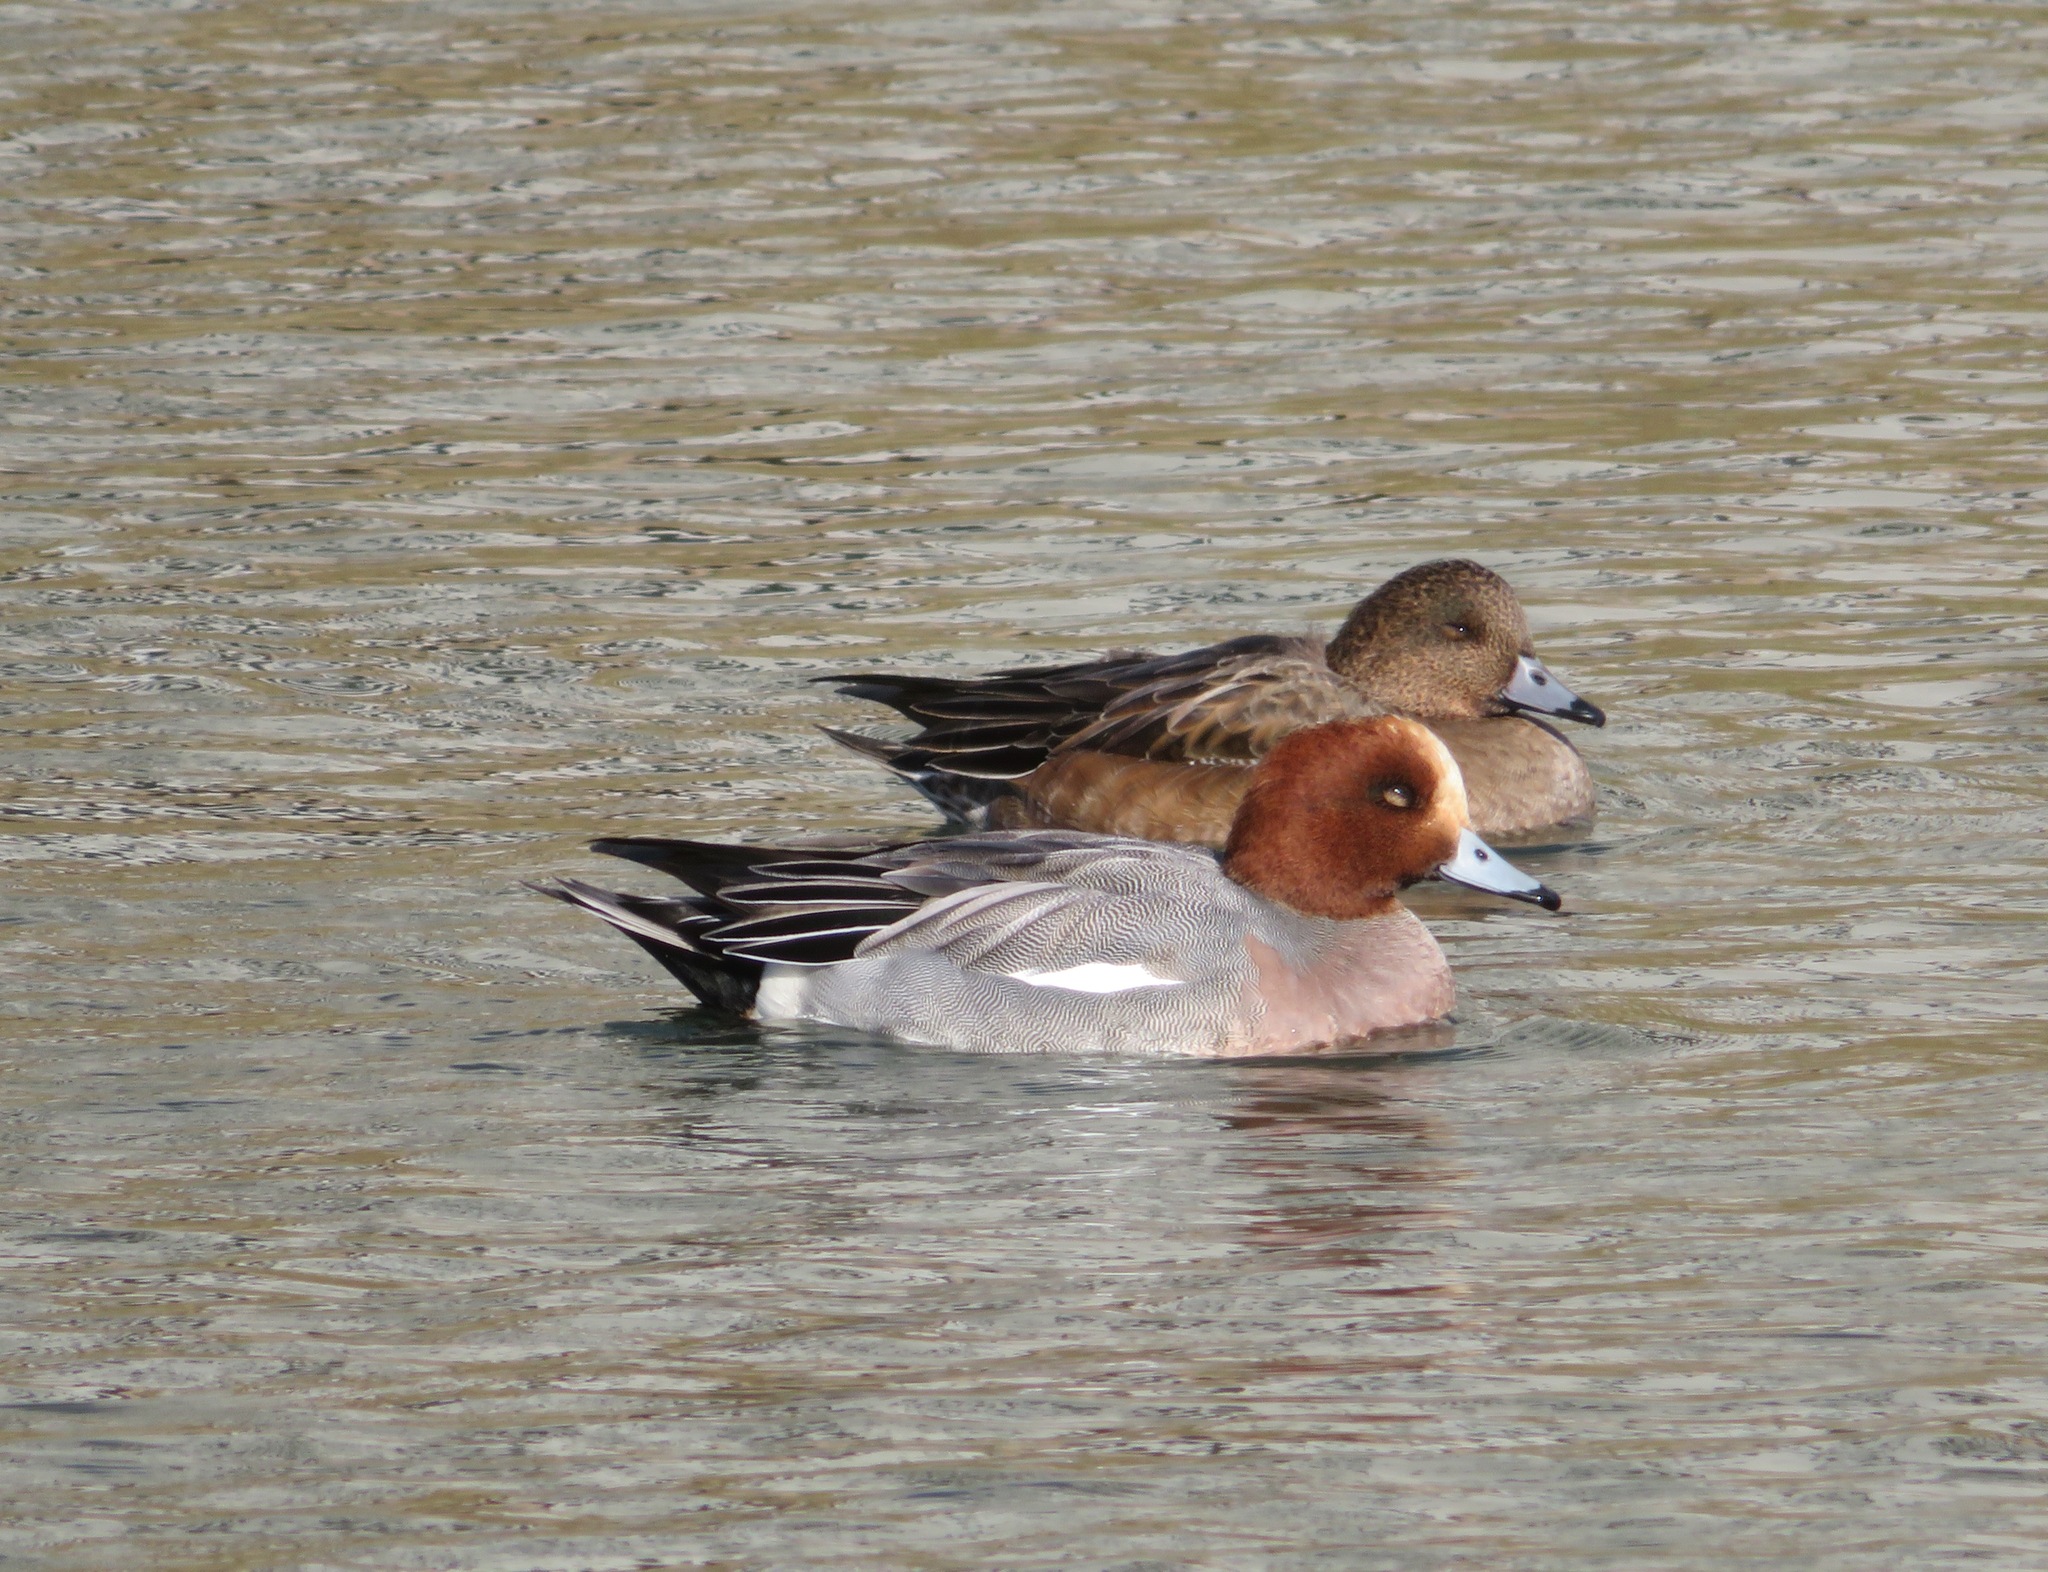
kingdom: Animalia
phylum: Chordata
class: Aves
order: Anseriformes
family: Anatidae
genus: Mareca
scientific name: Mareca penelope
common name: Eurasian wigeon
